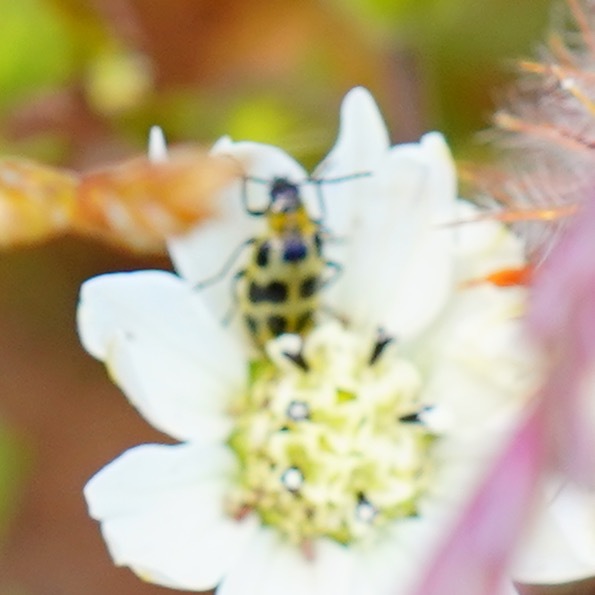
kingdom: Animalia
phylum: Arthropoda
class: Insecta
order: Coleoptera
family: Chrysomelidae
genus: Diabrotica
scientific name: Diabrotica undecimpunctata
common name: Spotted cucumber beetle
